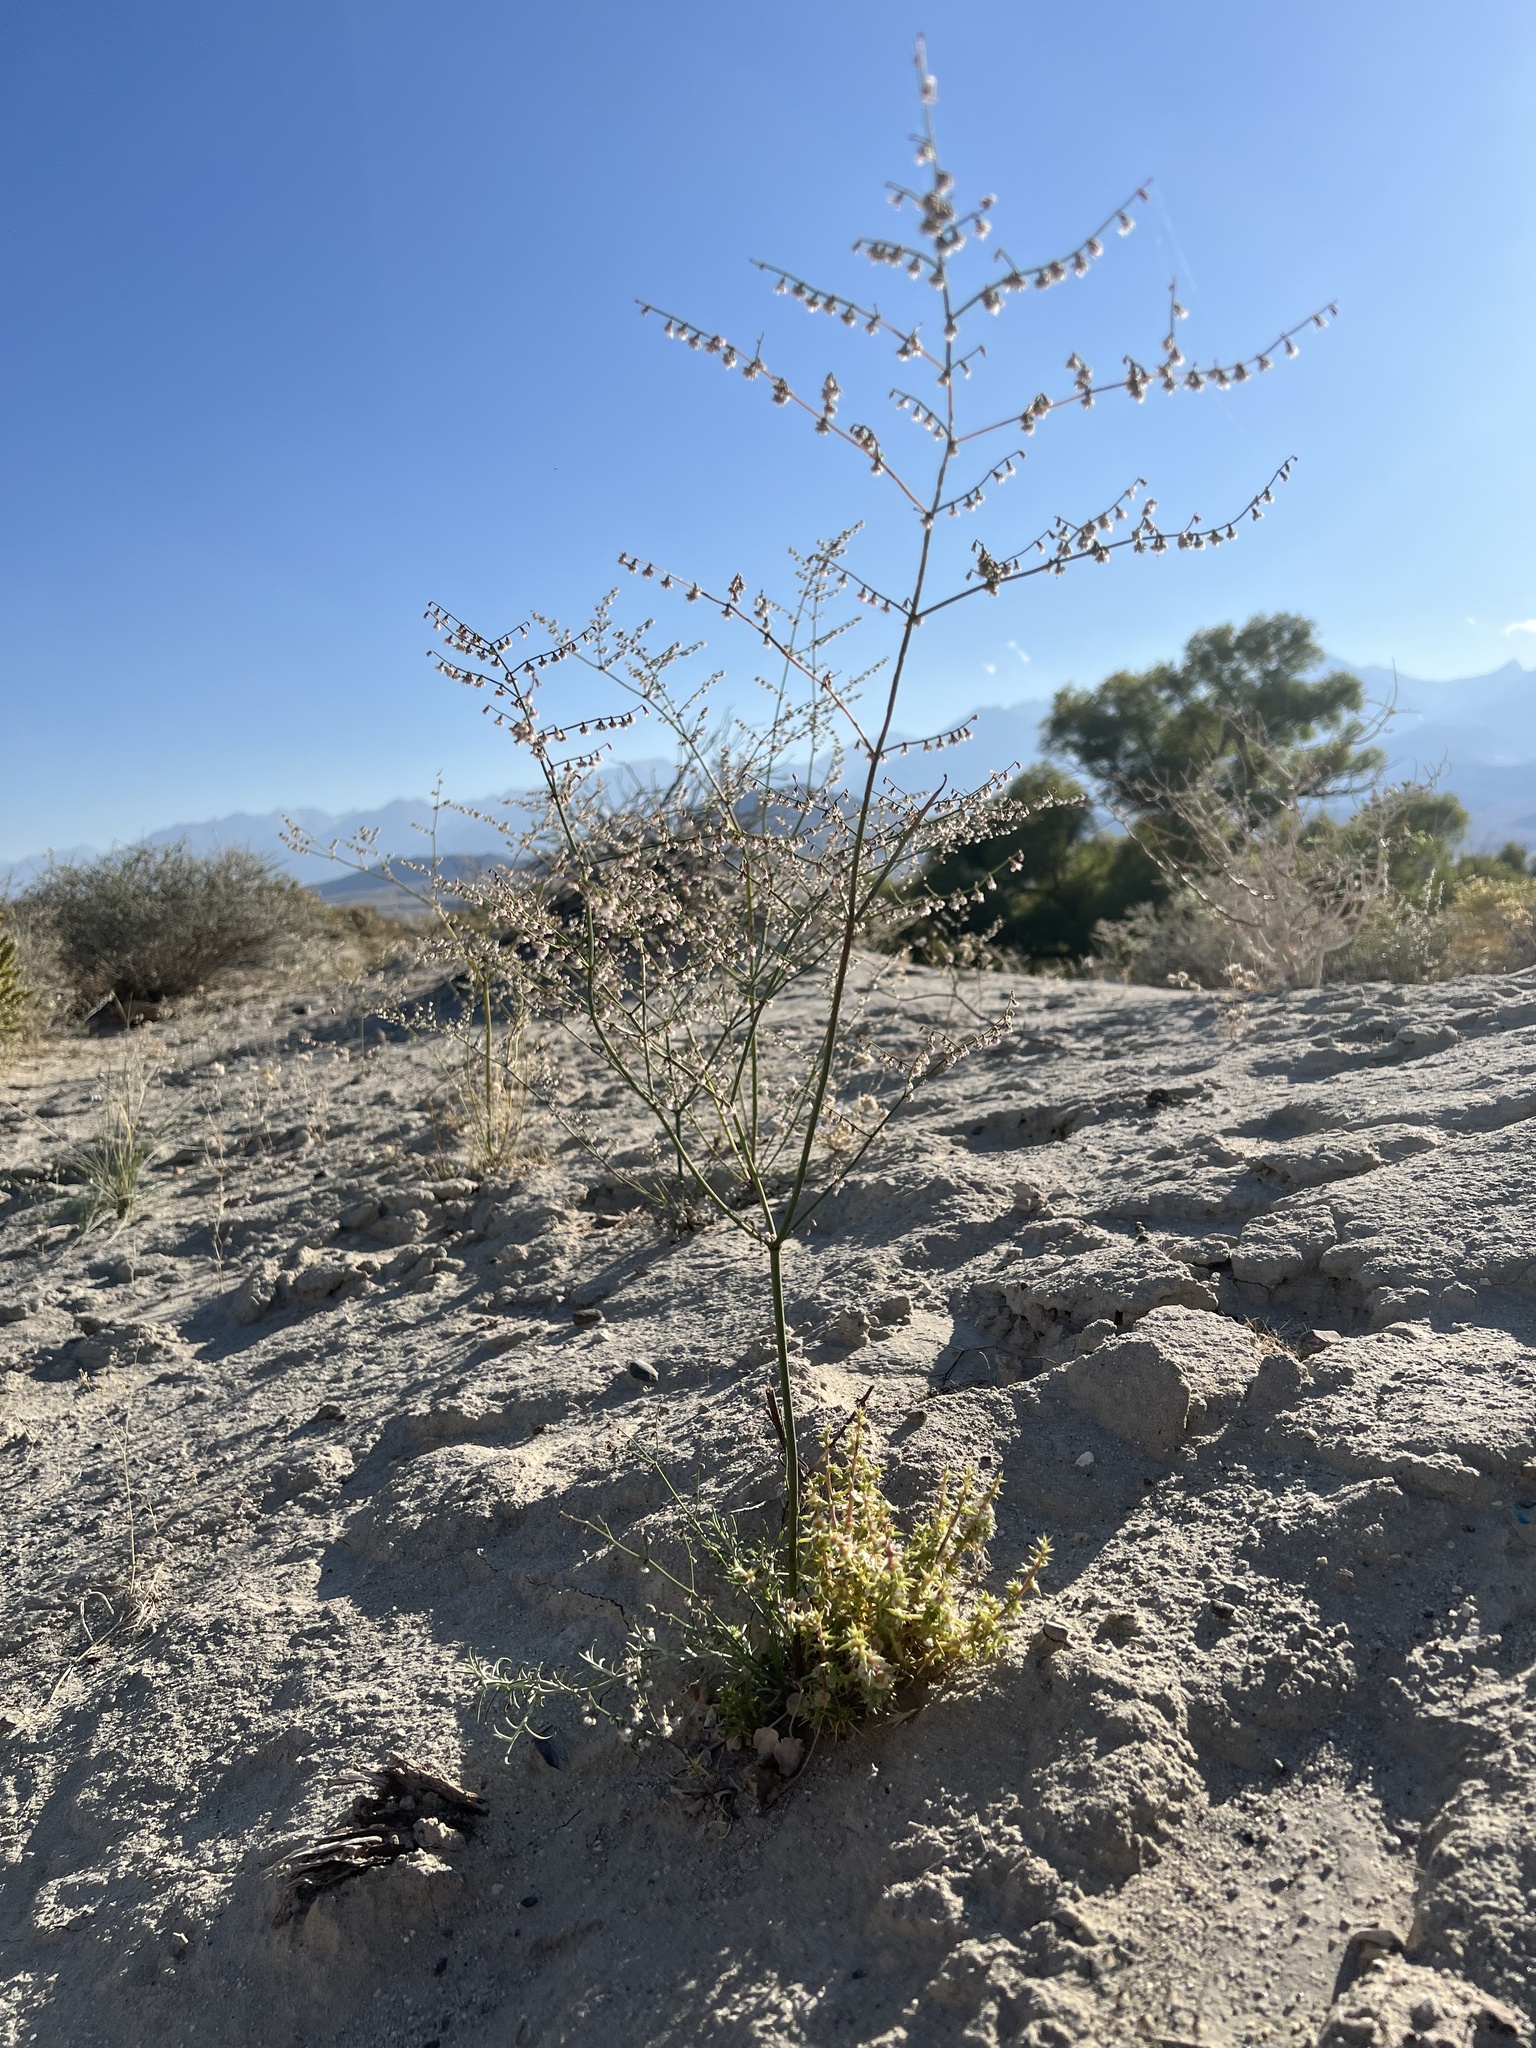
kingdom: Plantae
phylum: Tracheophyta
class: Magnoliopsida
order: Caryophyllales
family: Polygonaceae
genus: Eriogonum
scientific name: Eriogonum deflexum
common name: Skeleton-weed
